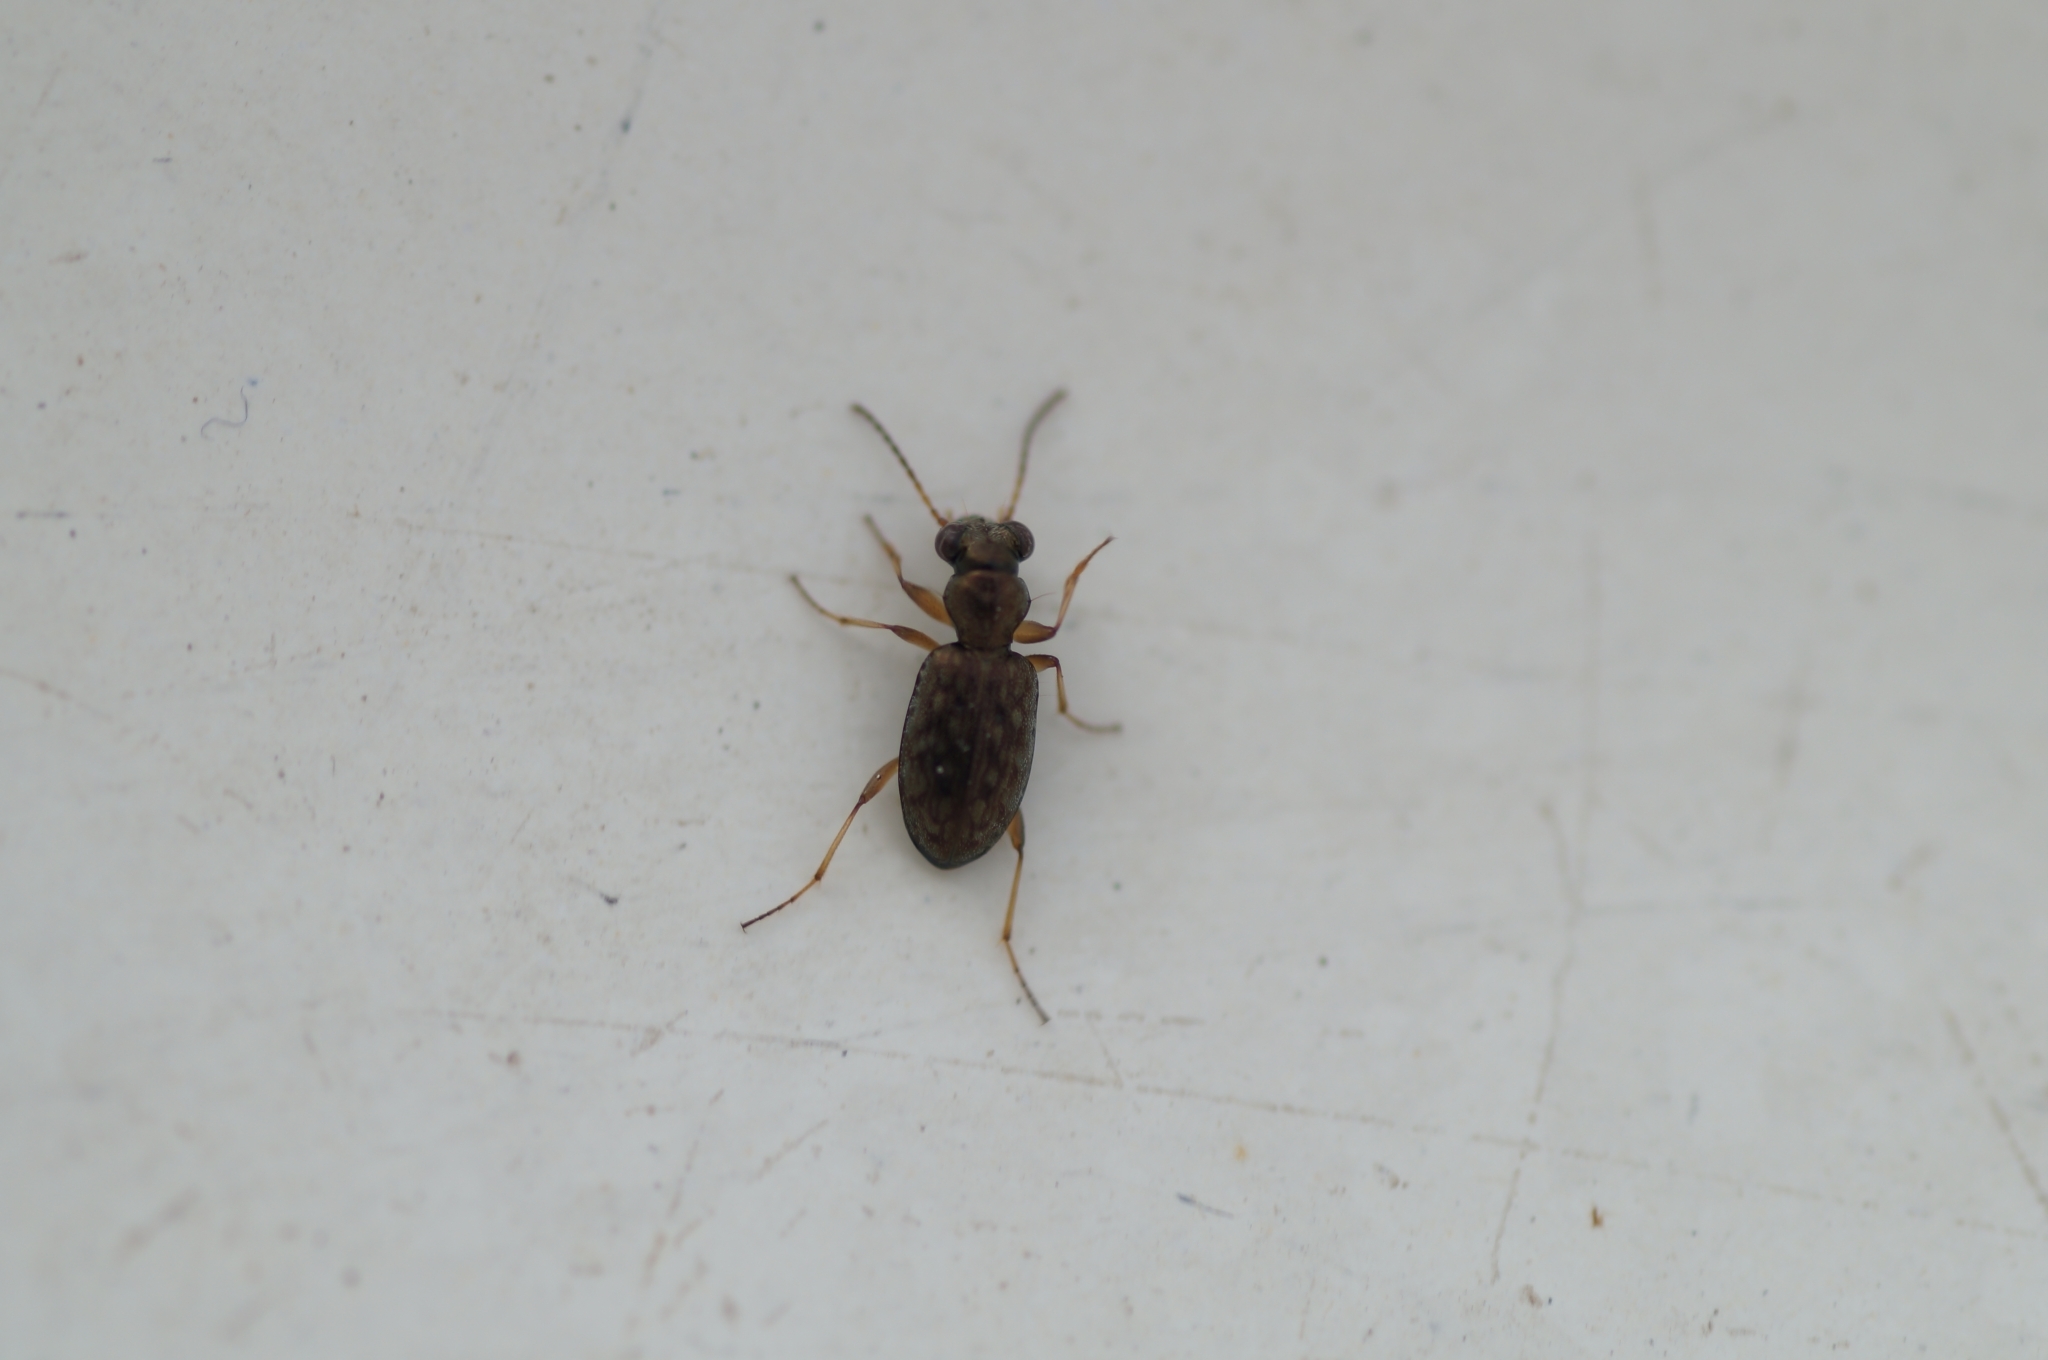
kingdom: Animalia
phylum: Arthropoda
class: Insecta
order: Coleoptera
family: Carabidae
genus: Asaphidion
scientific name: Asaphidion
